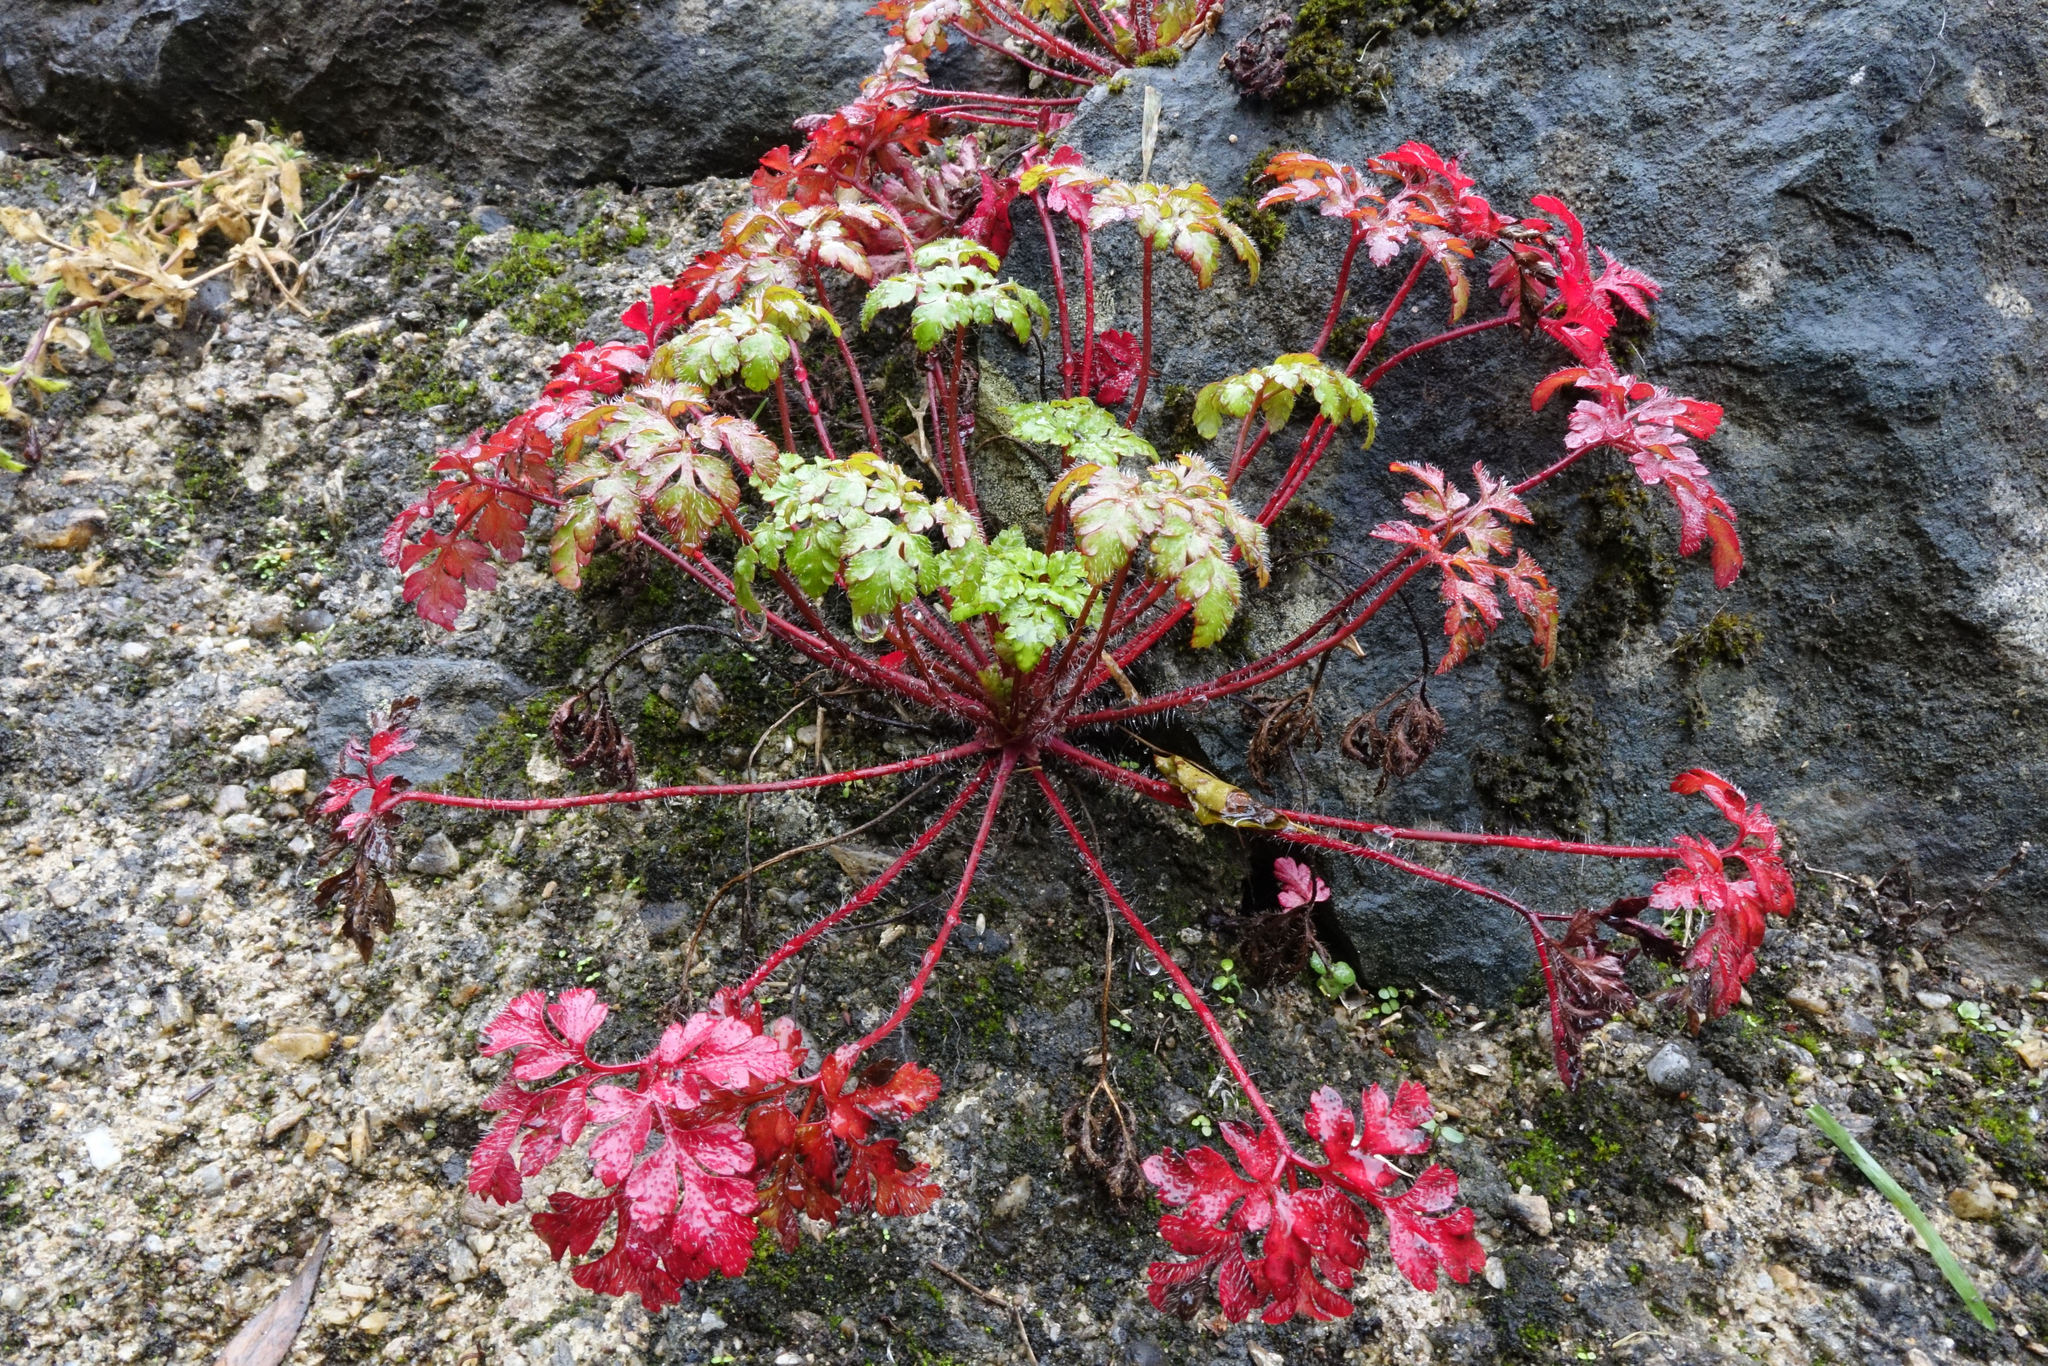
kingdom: Plantae
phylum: Tracheophyta
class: Magnoliopsida
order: Geraniales
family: Geraniaceae
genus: Geranium
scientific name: Geranium robertianum
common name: Herb-robert
